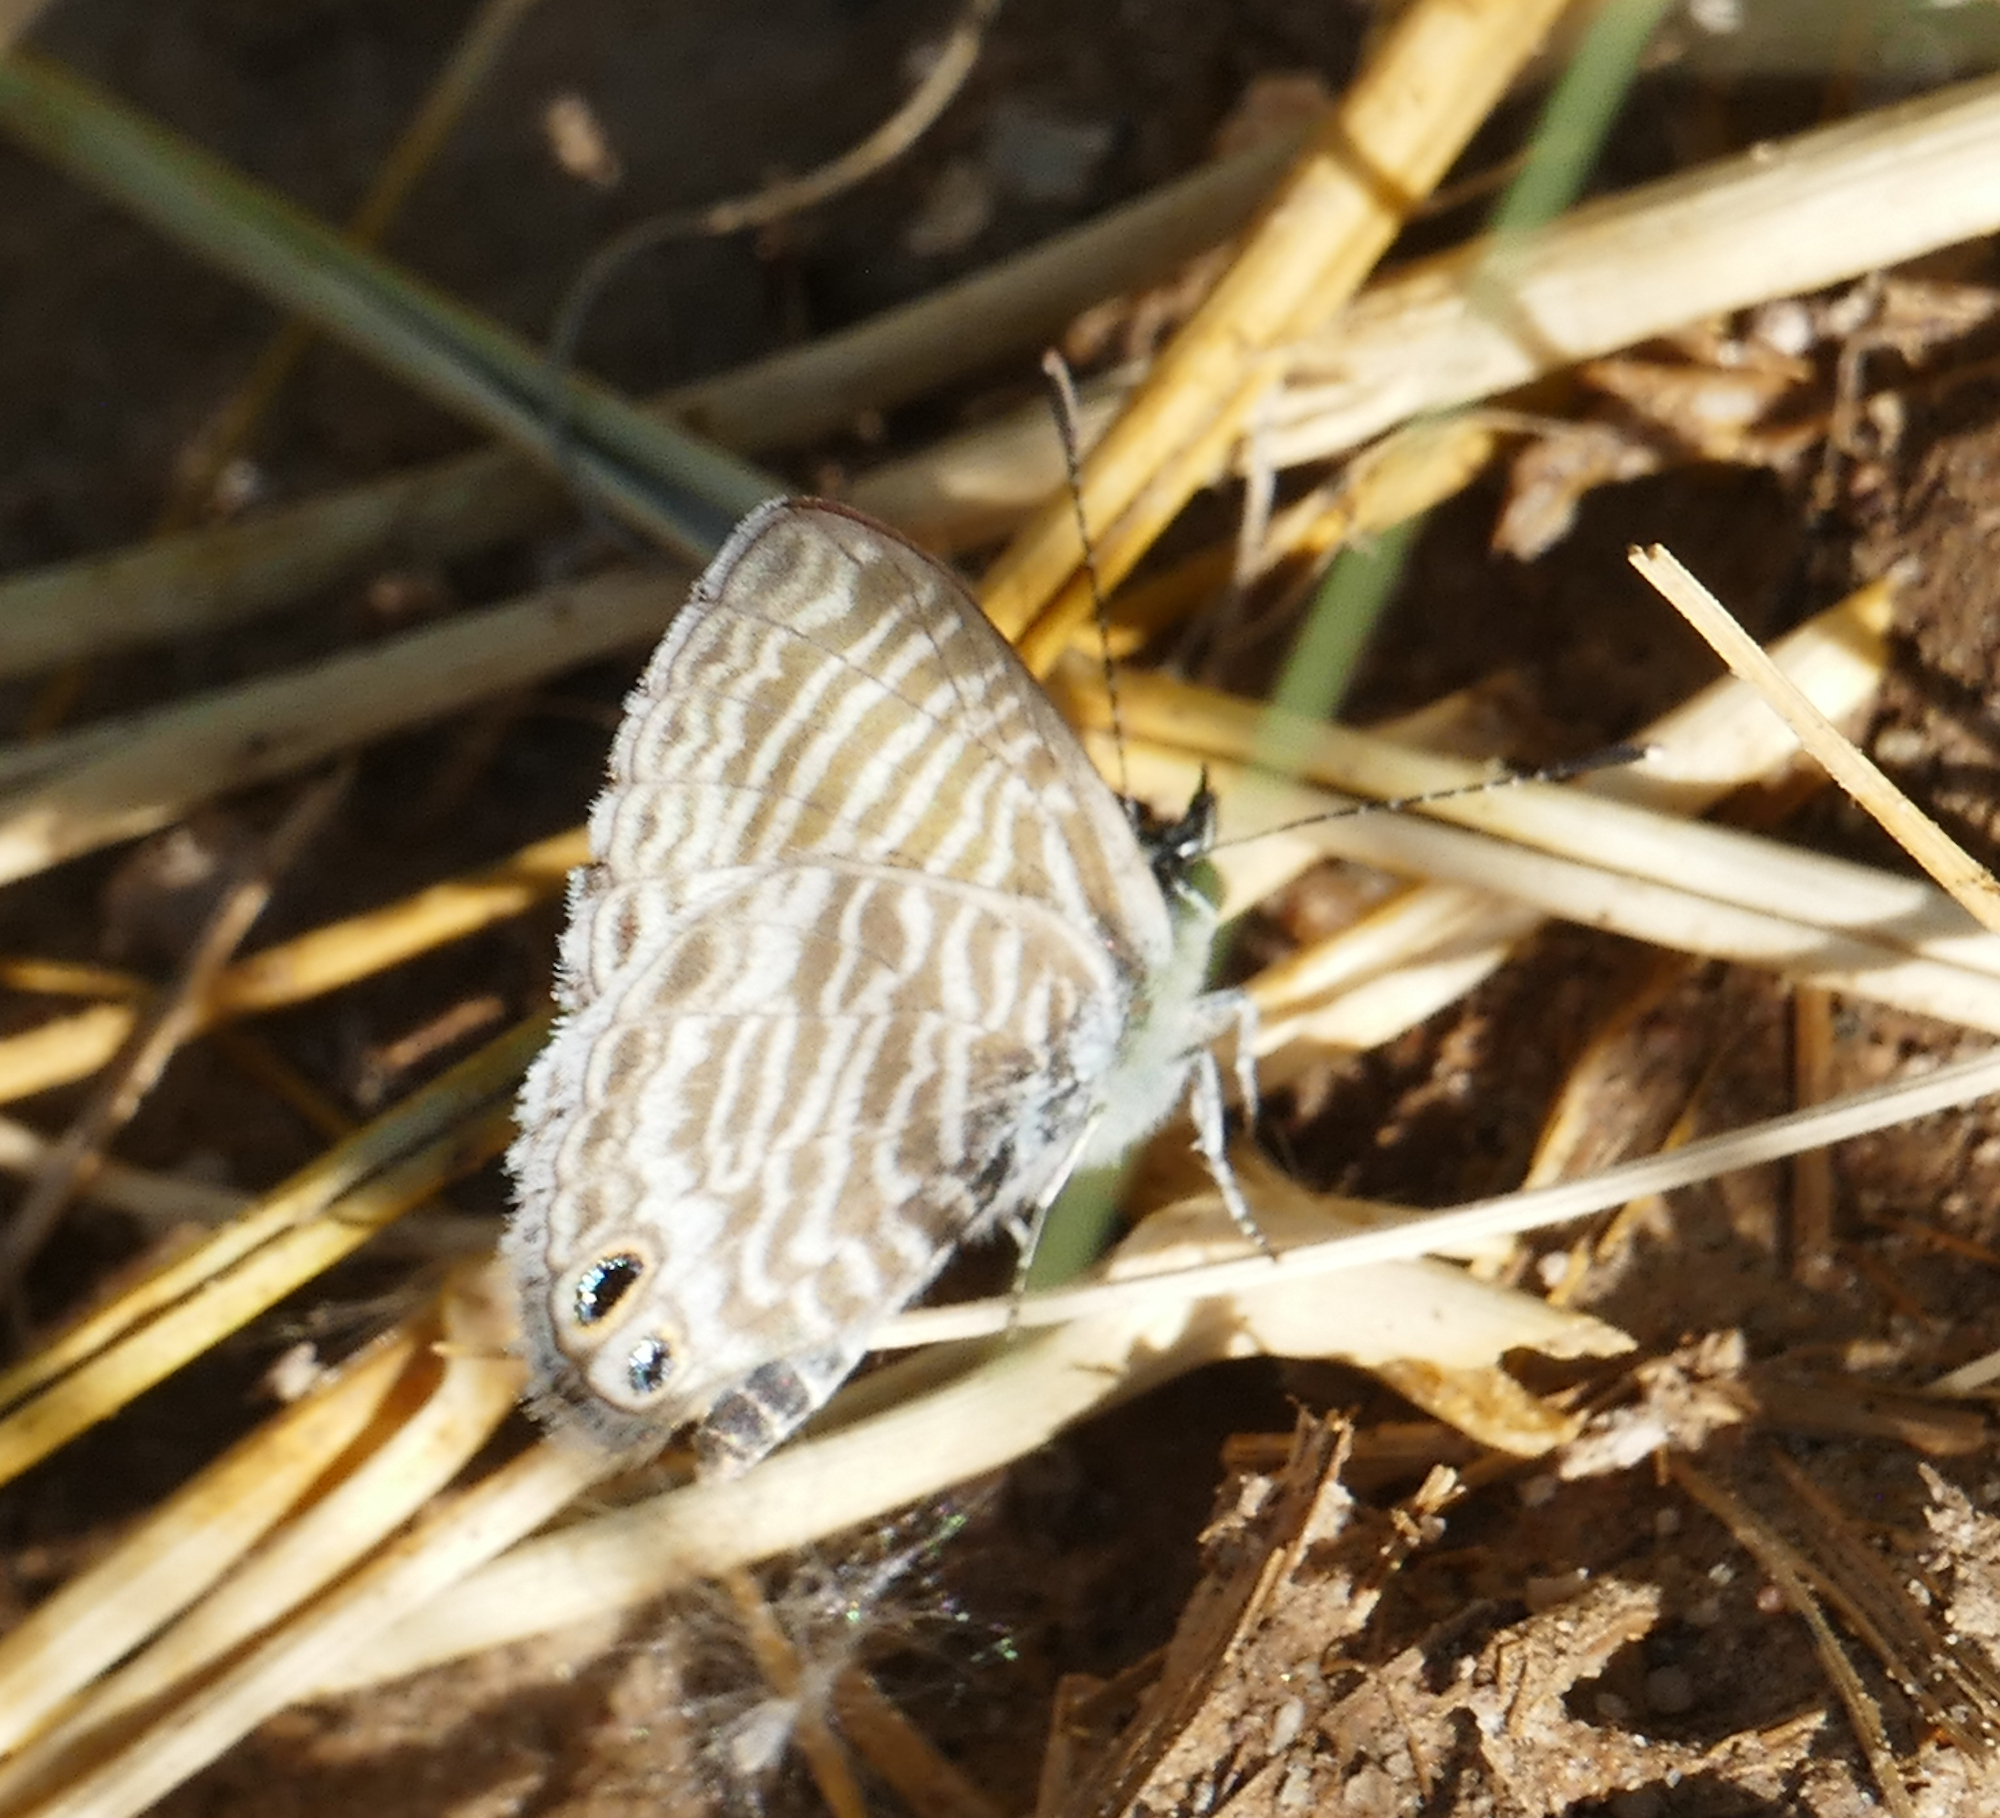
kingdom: Animalia
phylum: Arthropoda
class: Insecta
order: Lepidoptera
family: Lycaenidae
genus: Leptotes
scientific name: Leptotes marina
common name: Marine blue
